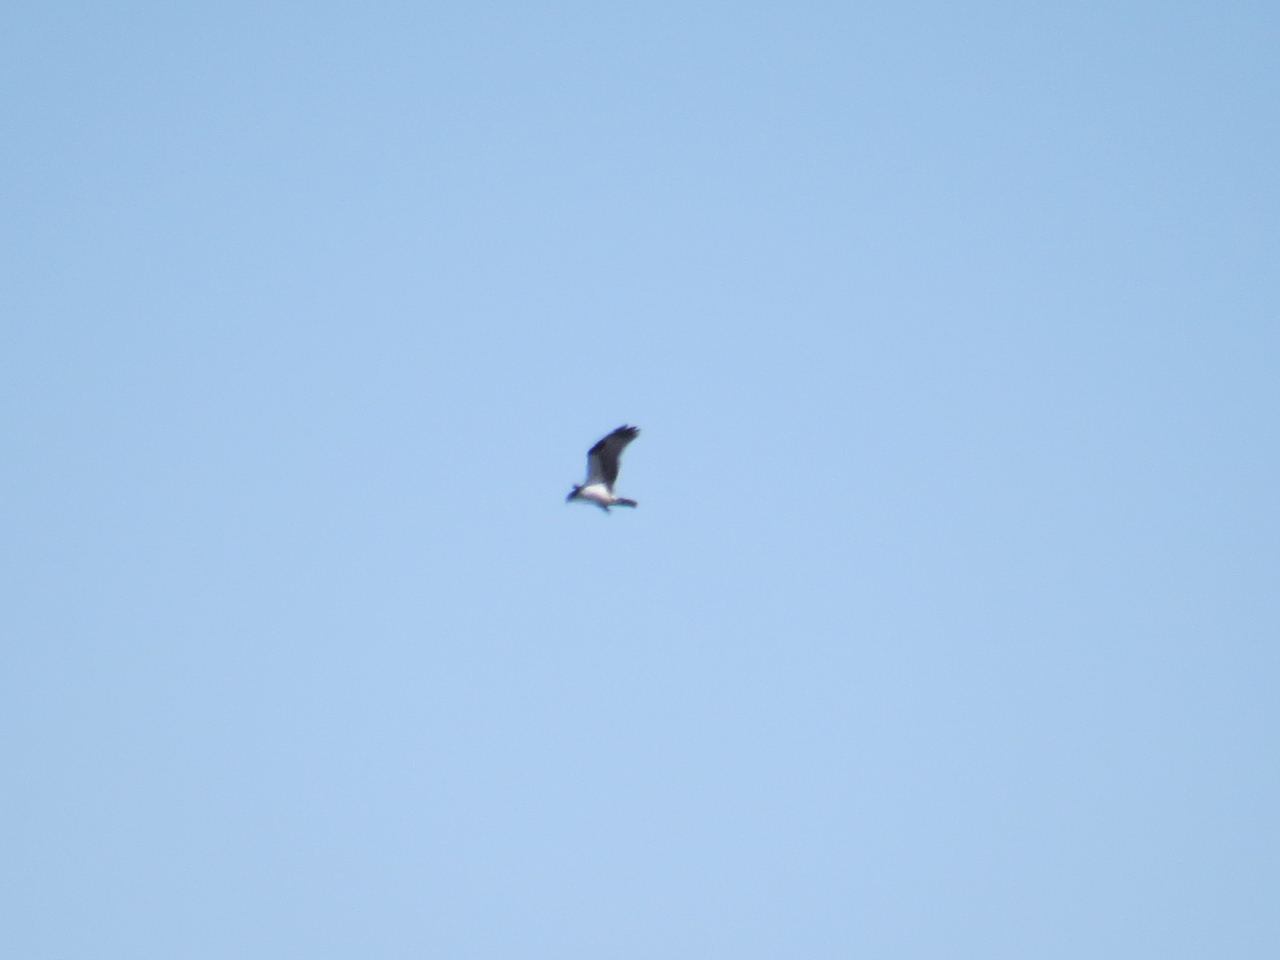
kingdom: Animalia
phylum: Chordata
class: Aves
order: Accipitriformes
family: Pandionidae
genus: Pandion
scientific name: Pandion haliaetus
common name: Osprey
